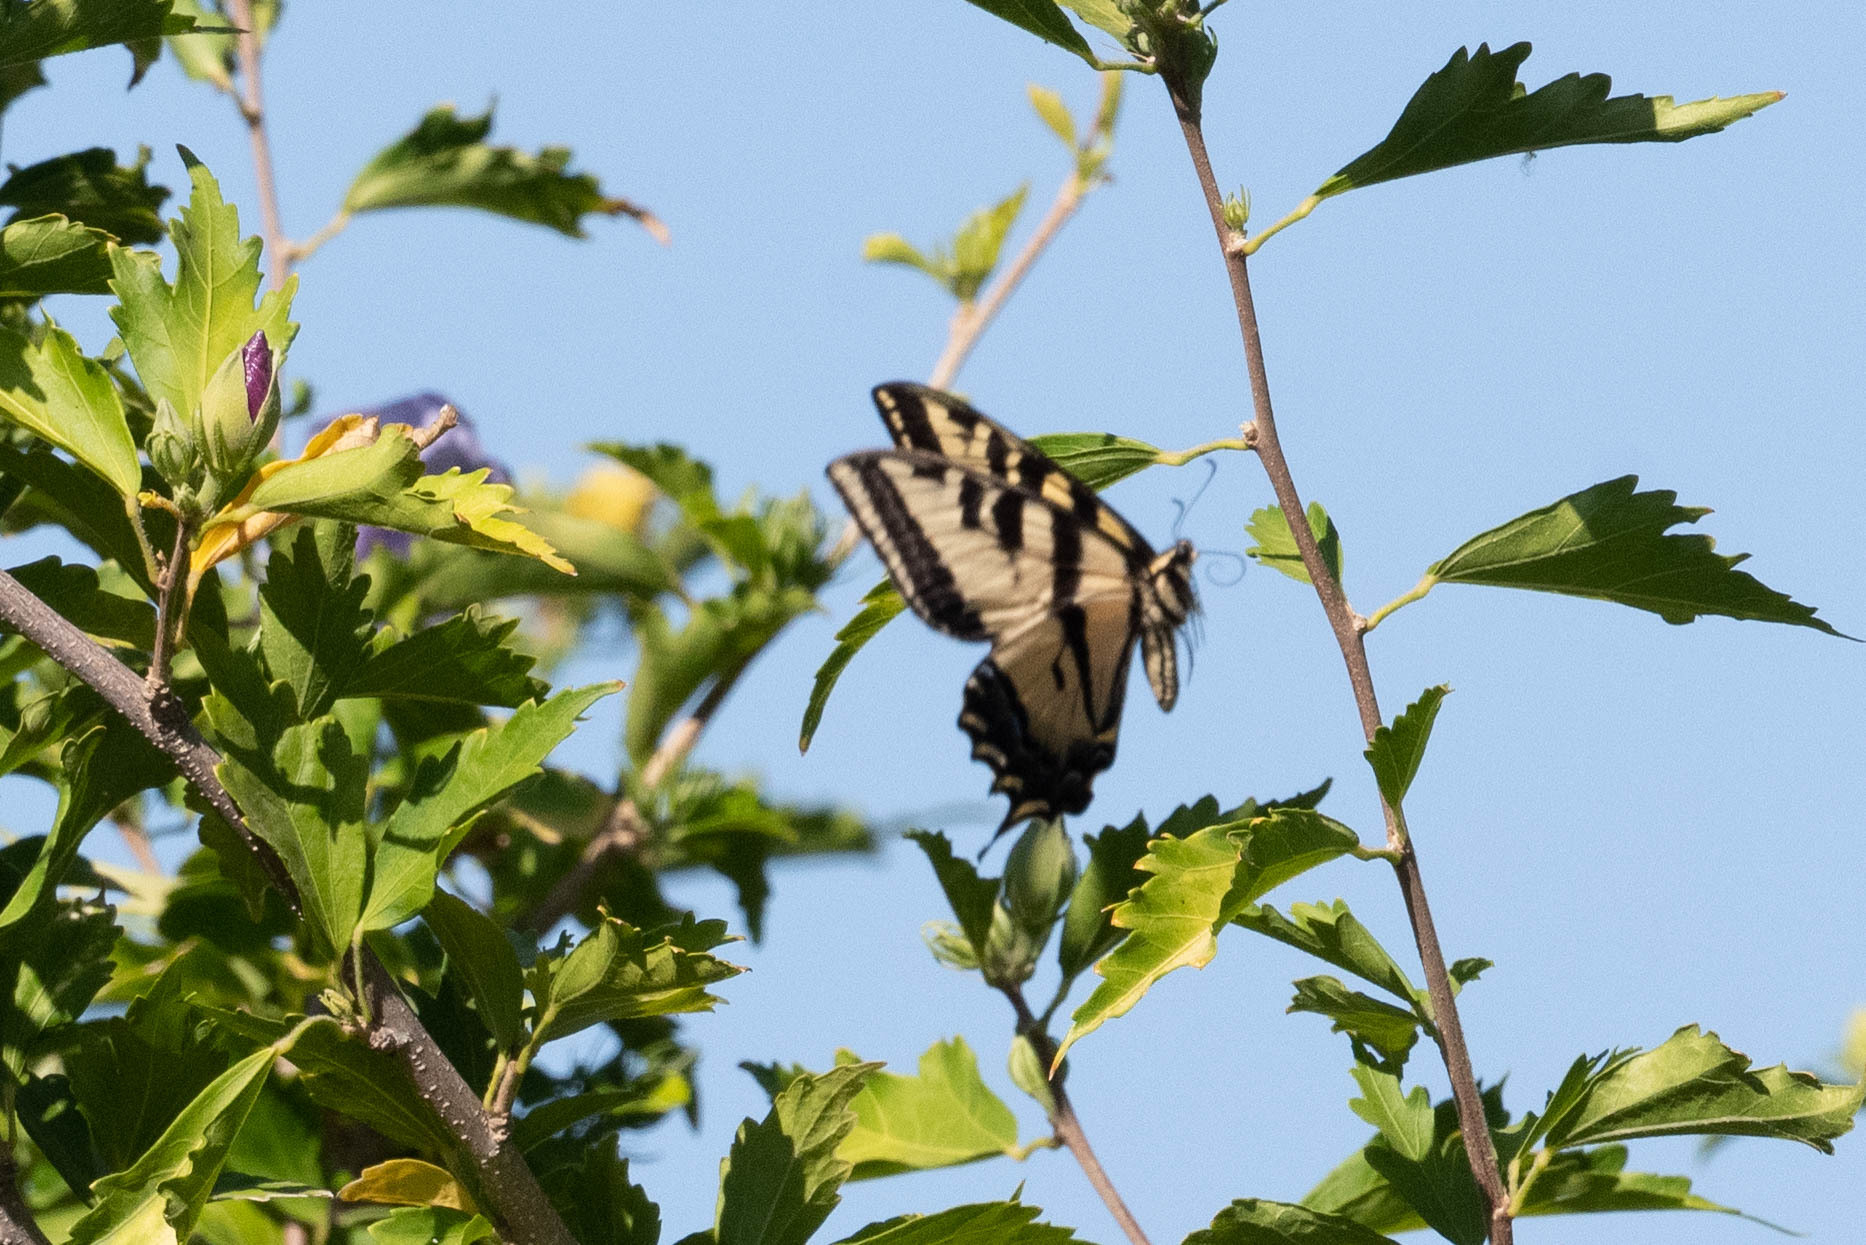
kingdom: Animalia
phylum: Arthropoda
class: Insecta
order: Lepidoptera
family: Papilionidae
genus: Papilio
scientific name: Papilio rutulus
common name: Western tiger swallowtail
